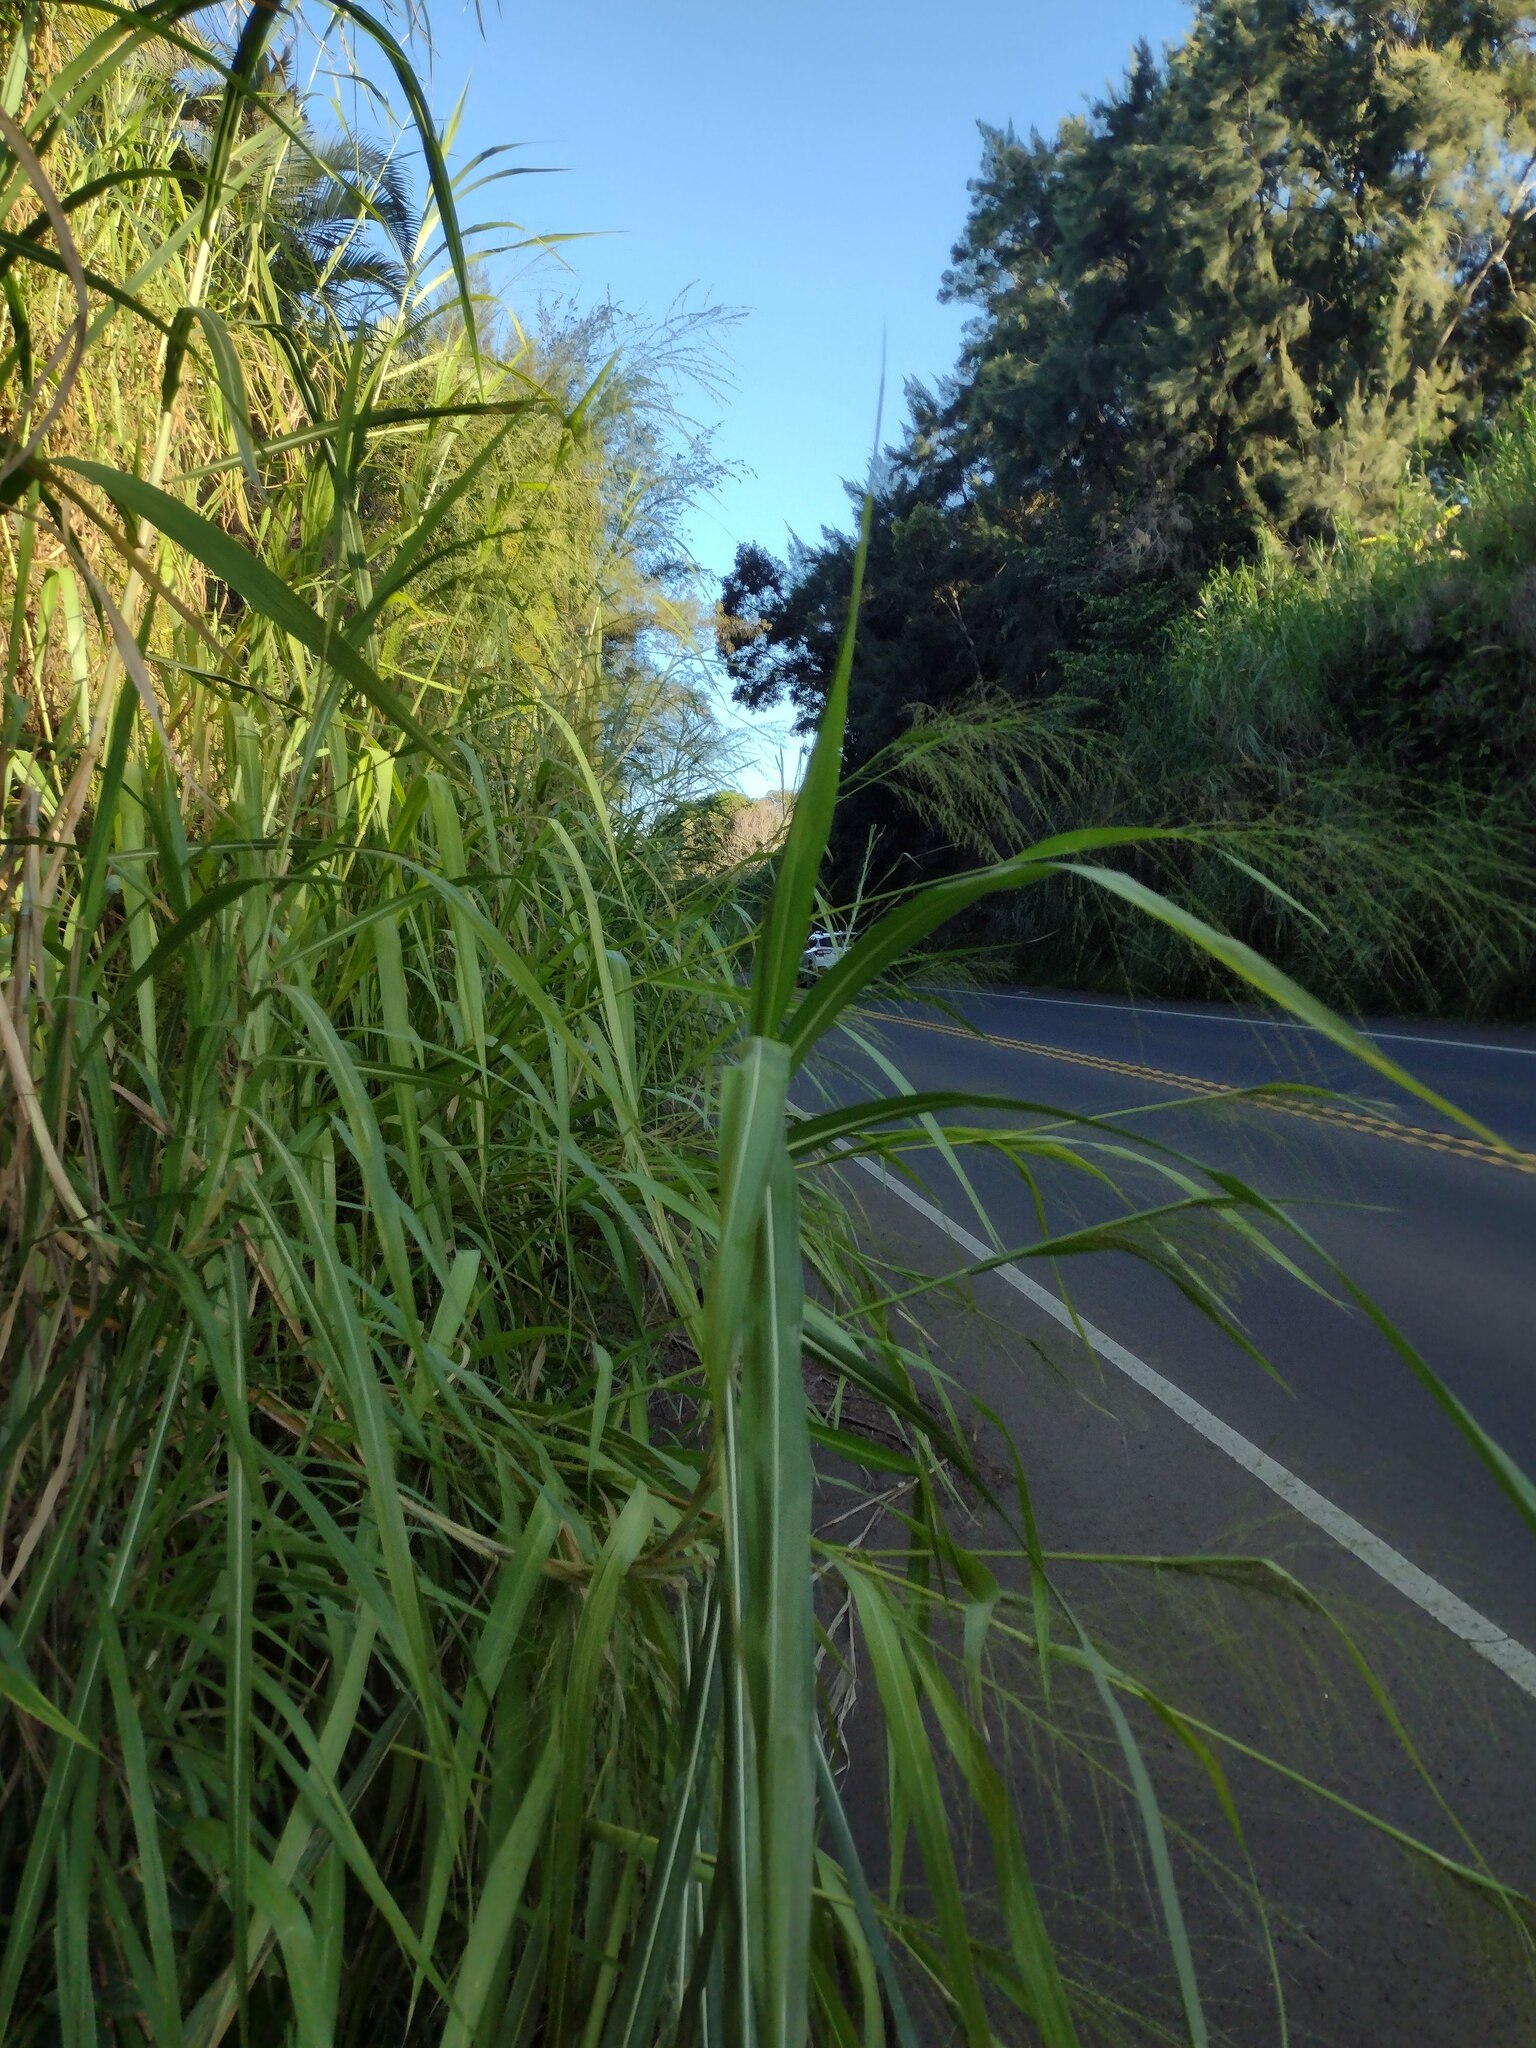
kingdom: Plantae
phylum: Tracheophyta
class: Liliopsida
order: Poales
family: Poaceae
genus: Megathyrsus
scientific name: Megathyrsus maximus
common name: Guineagrass
